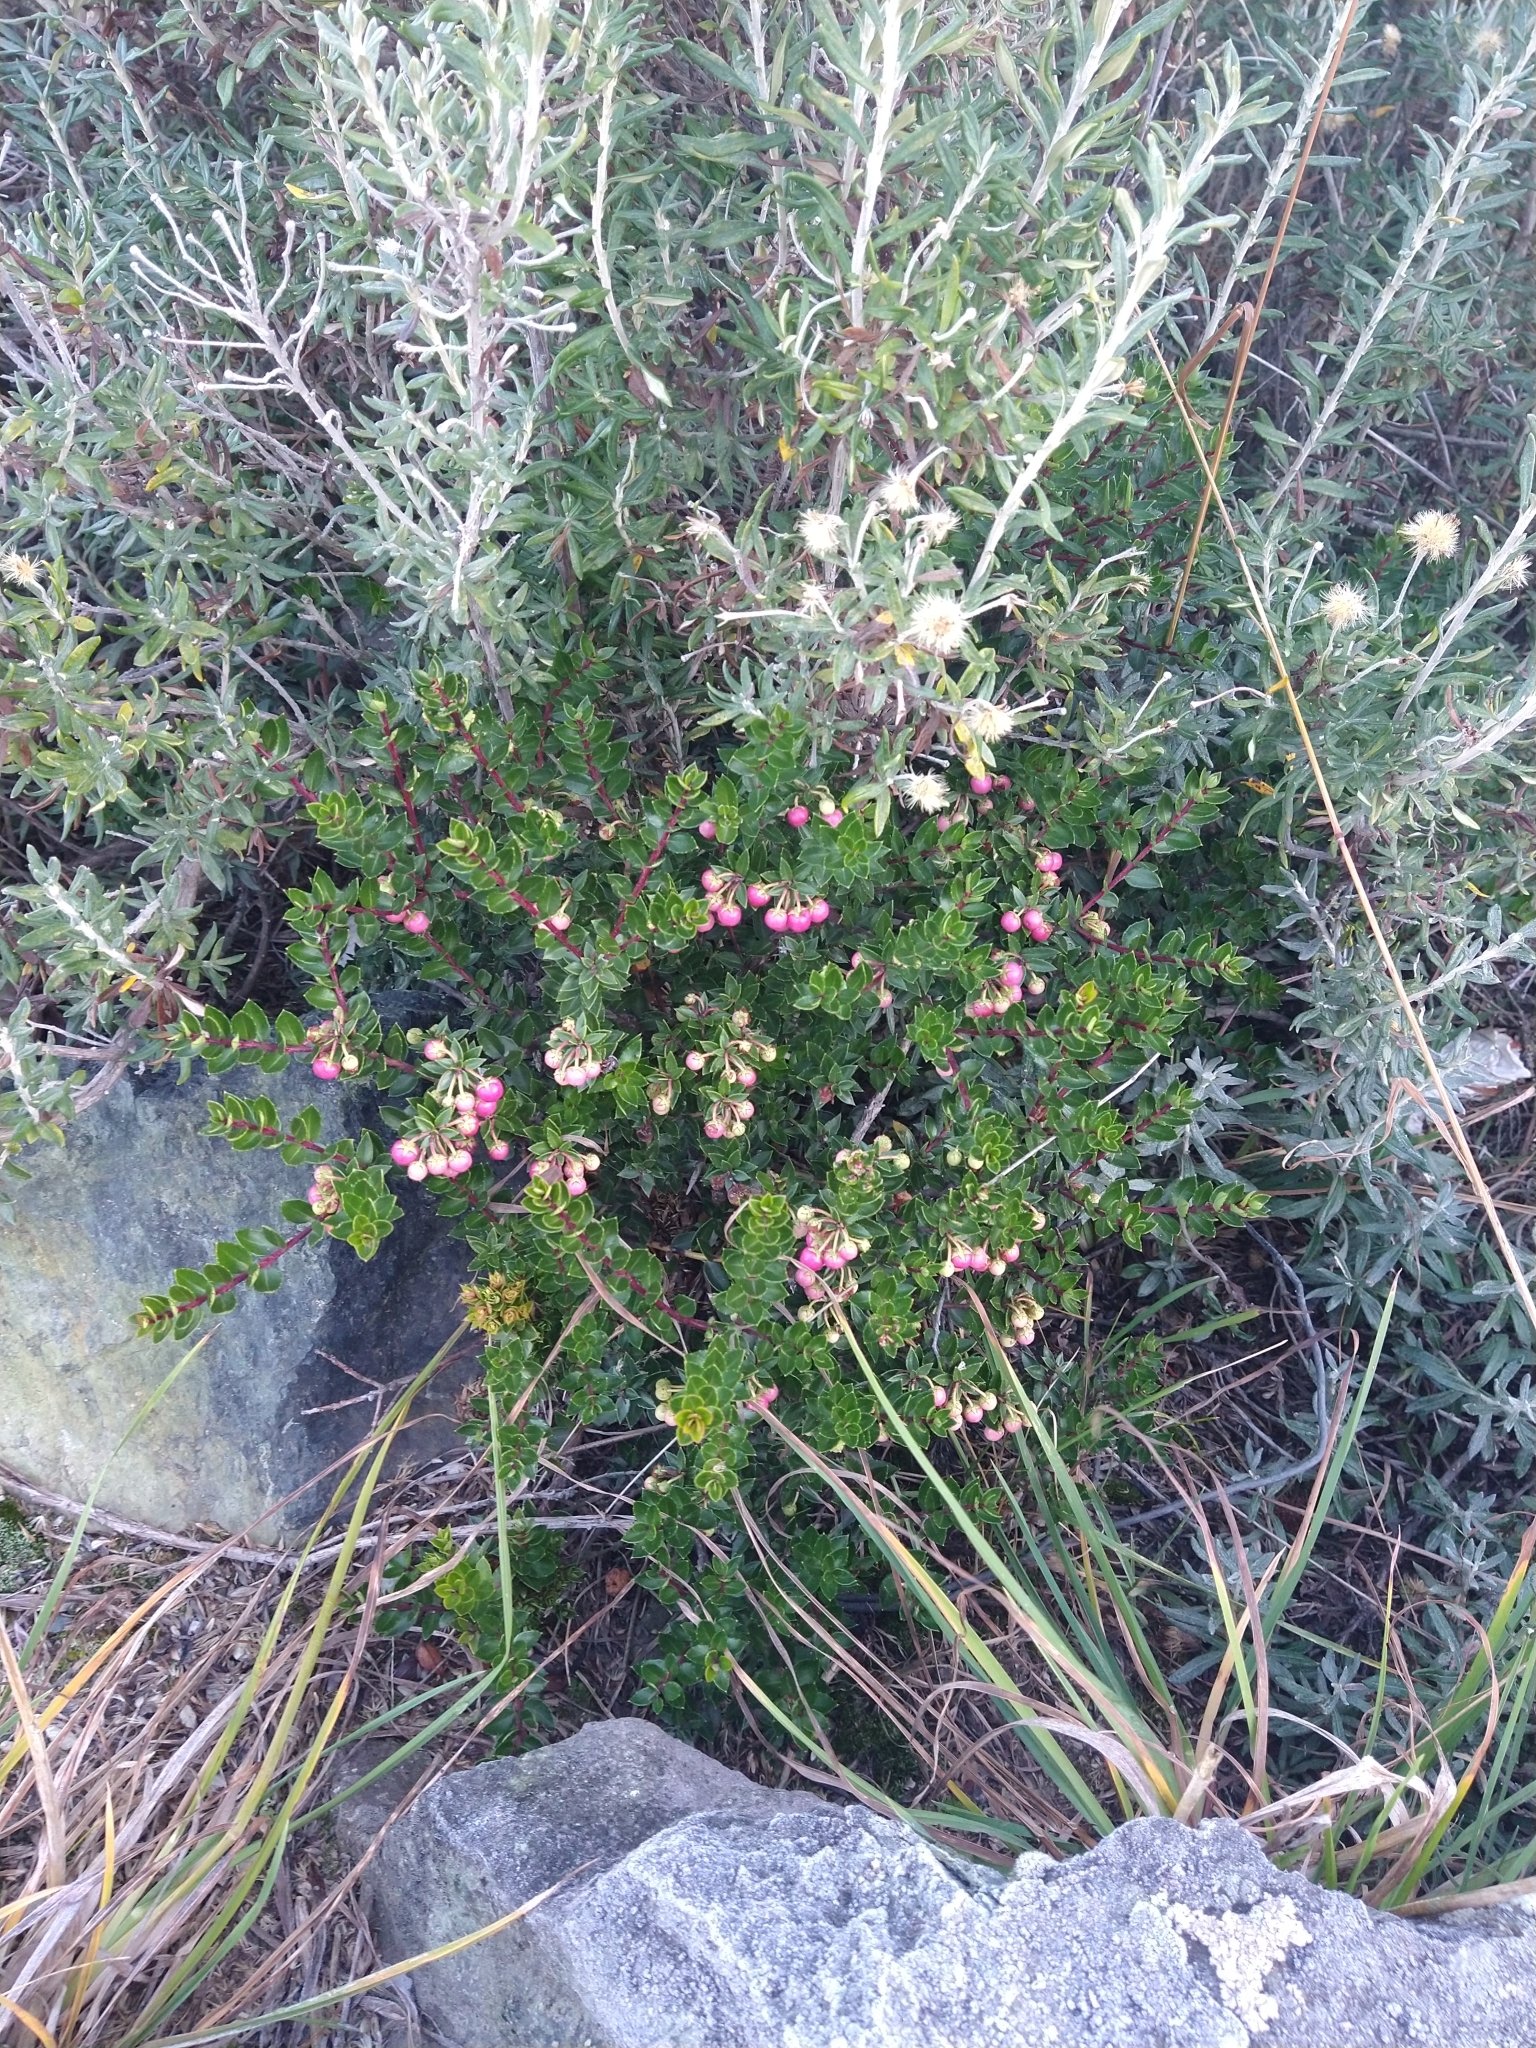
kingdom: Plantae
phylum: Tracheophyta
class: Magnoliopsida
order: Ericales
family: Ericaceae
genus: Gaultheria
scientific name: Gaultheria mucronata
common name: Prickly heath
